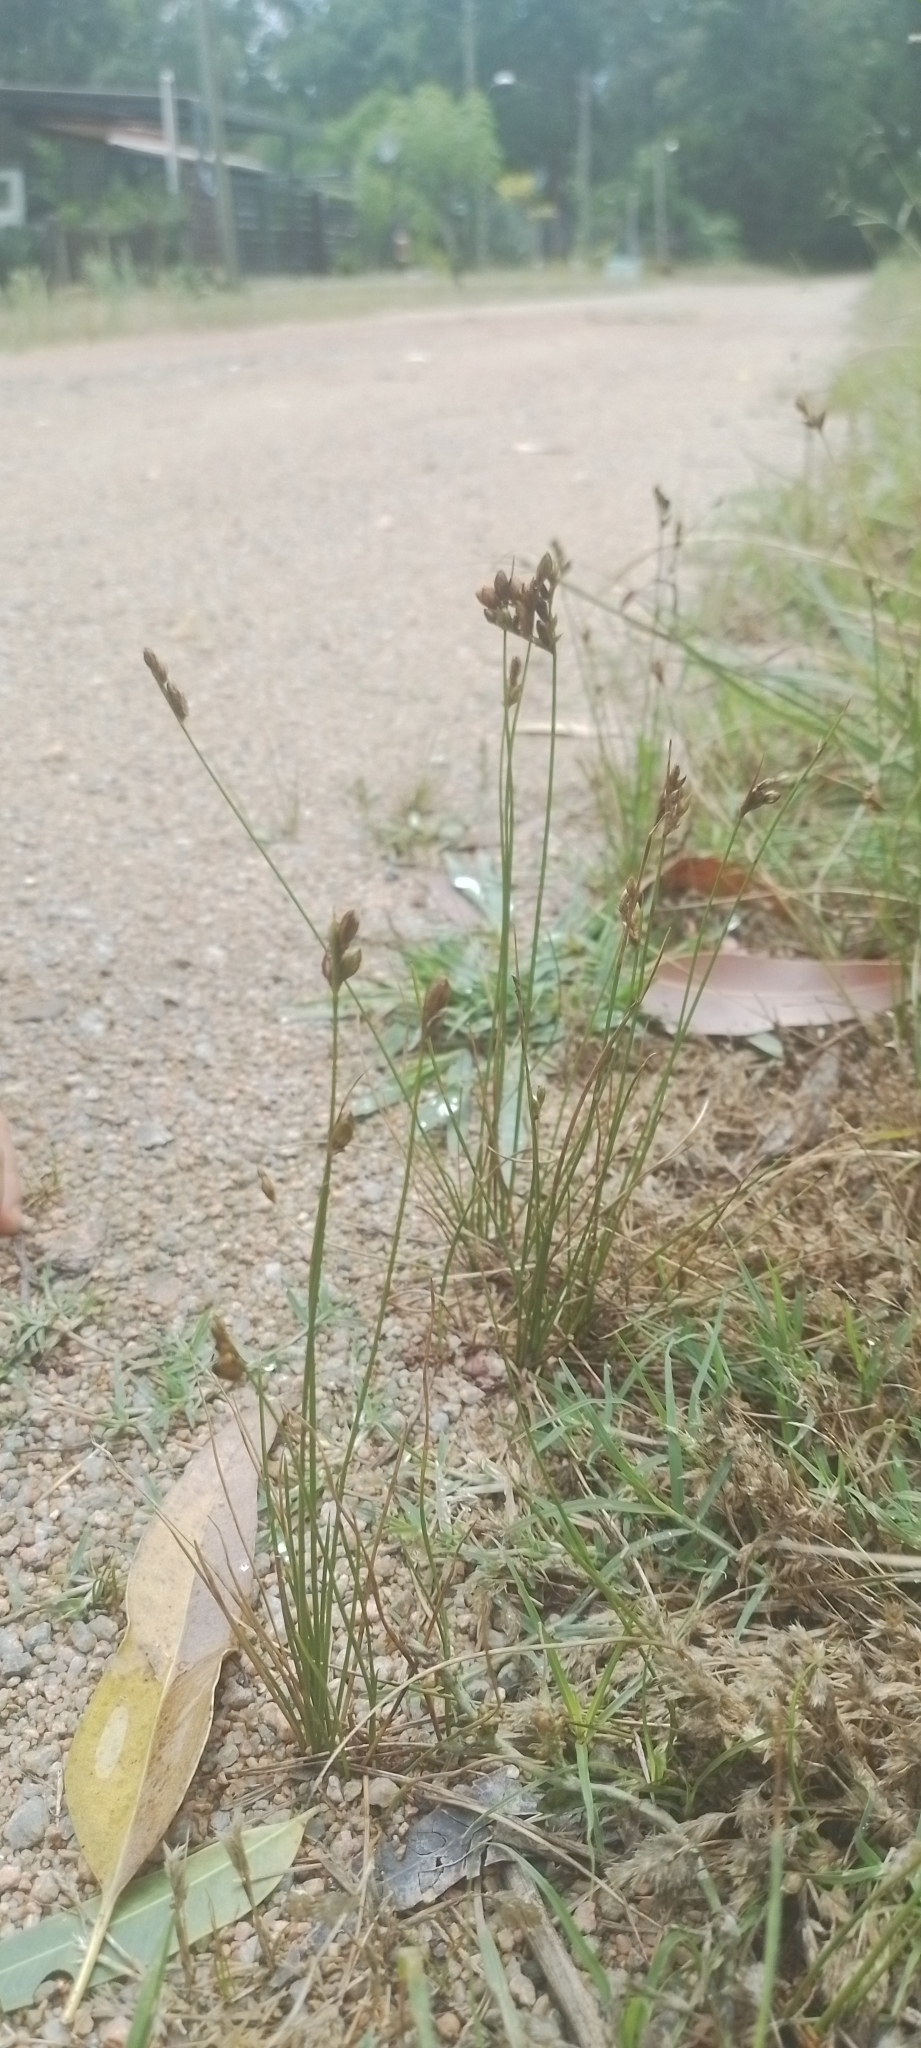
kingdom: Plantae
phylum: Tracheophyta
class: Liliopsida
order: Poales
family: Juncaceae
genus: Juncus
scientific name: Juncus imbricatus
